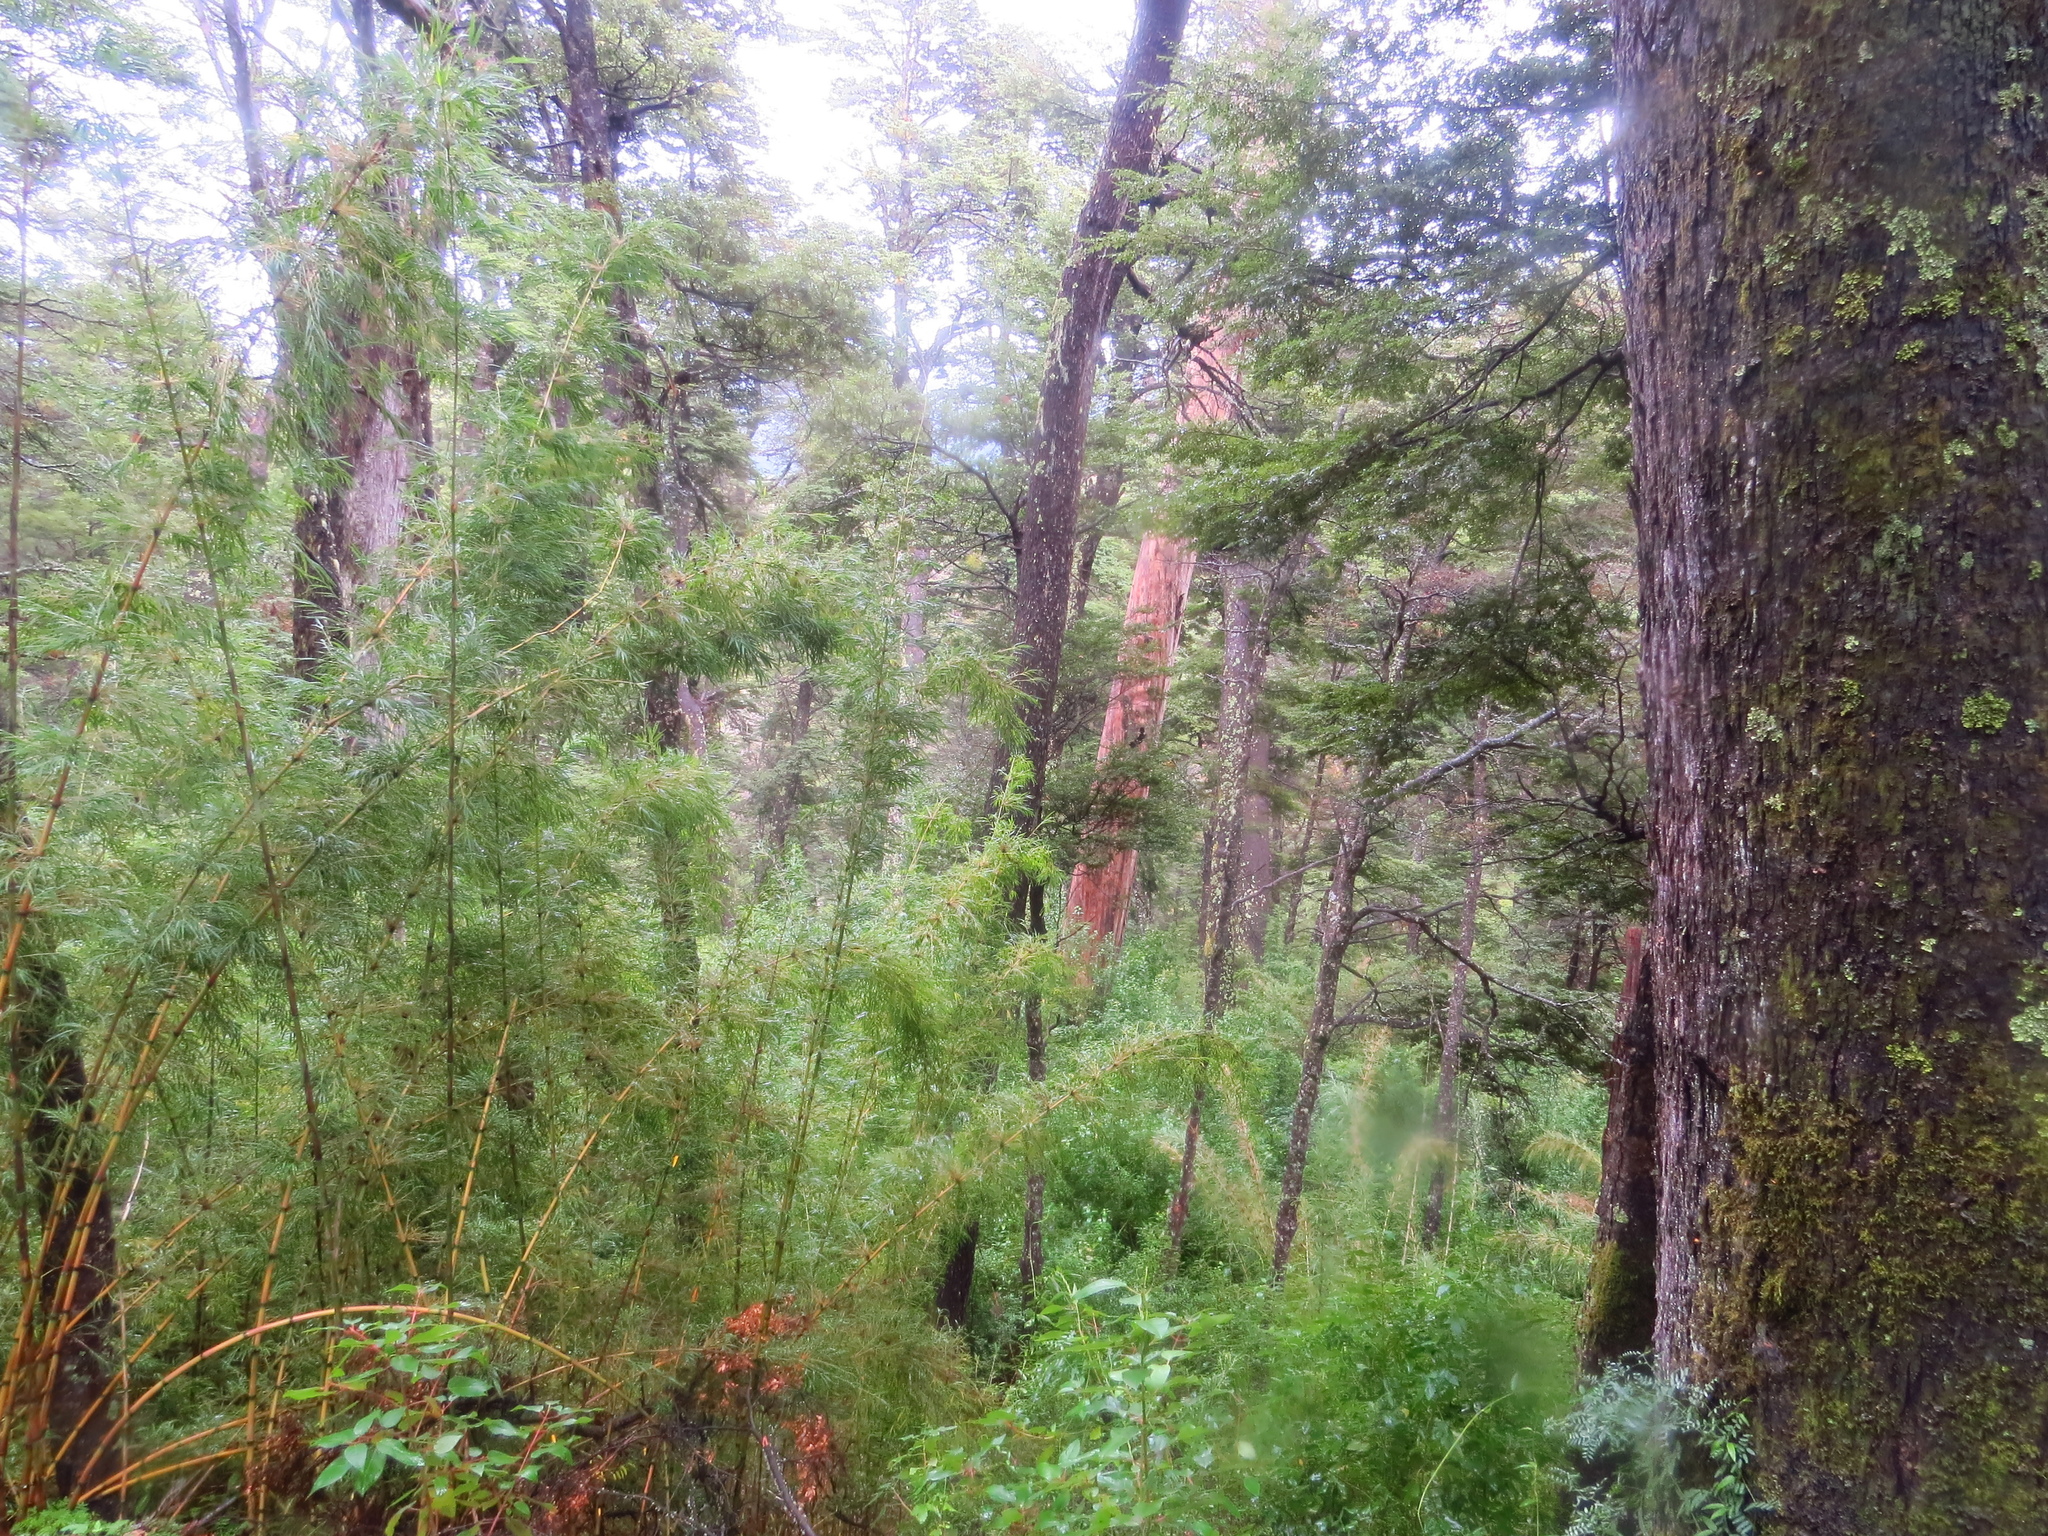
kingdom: Plantae
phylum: Tracheophyta
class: Liliopsida
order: Poales
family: Poaceae
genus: Chusquea
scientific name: Chusquea culeou
